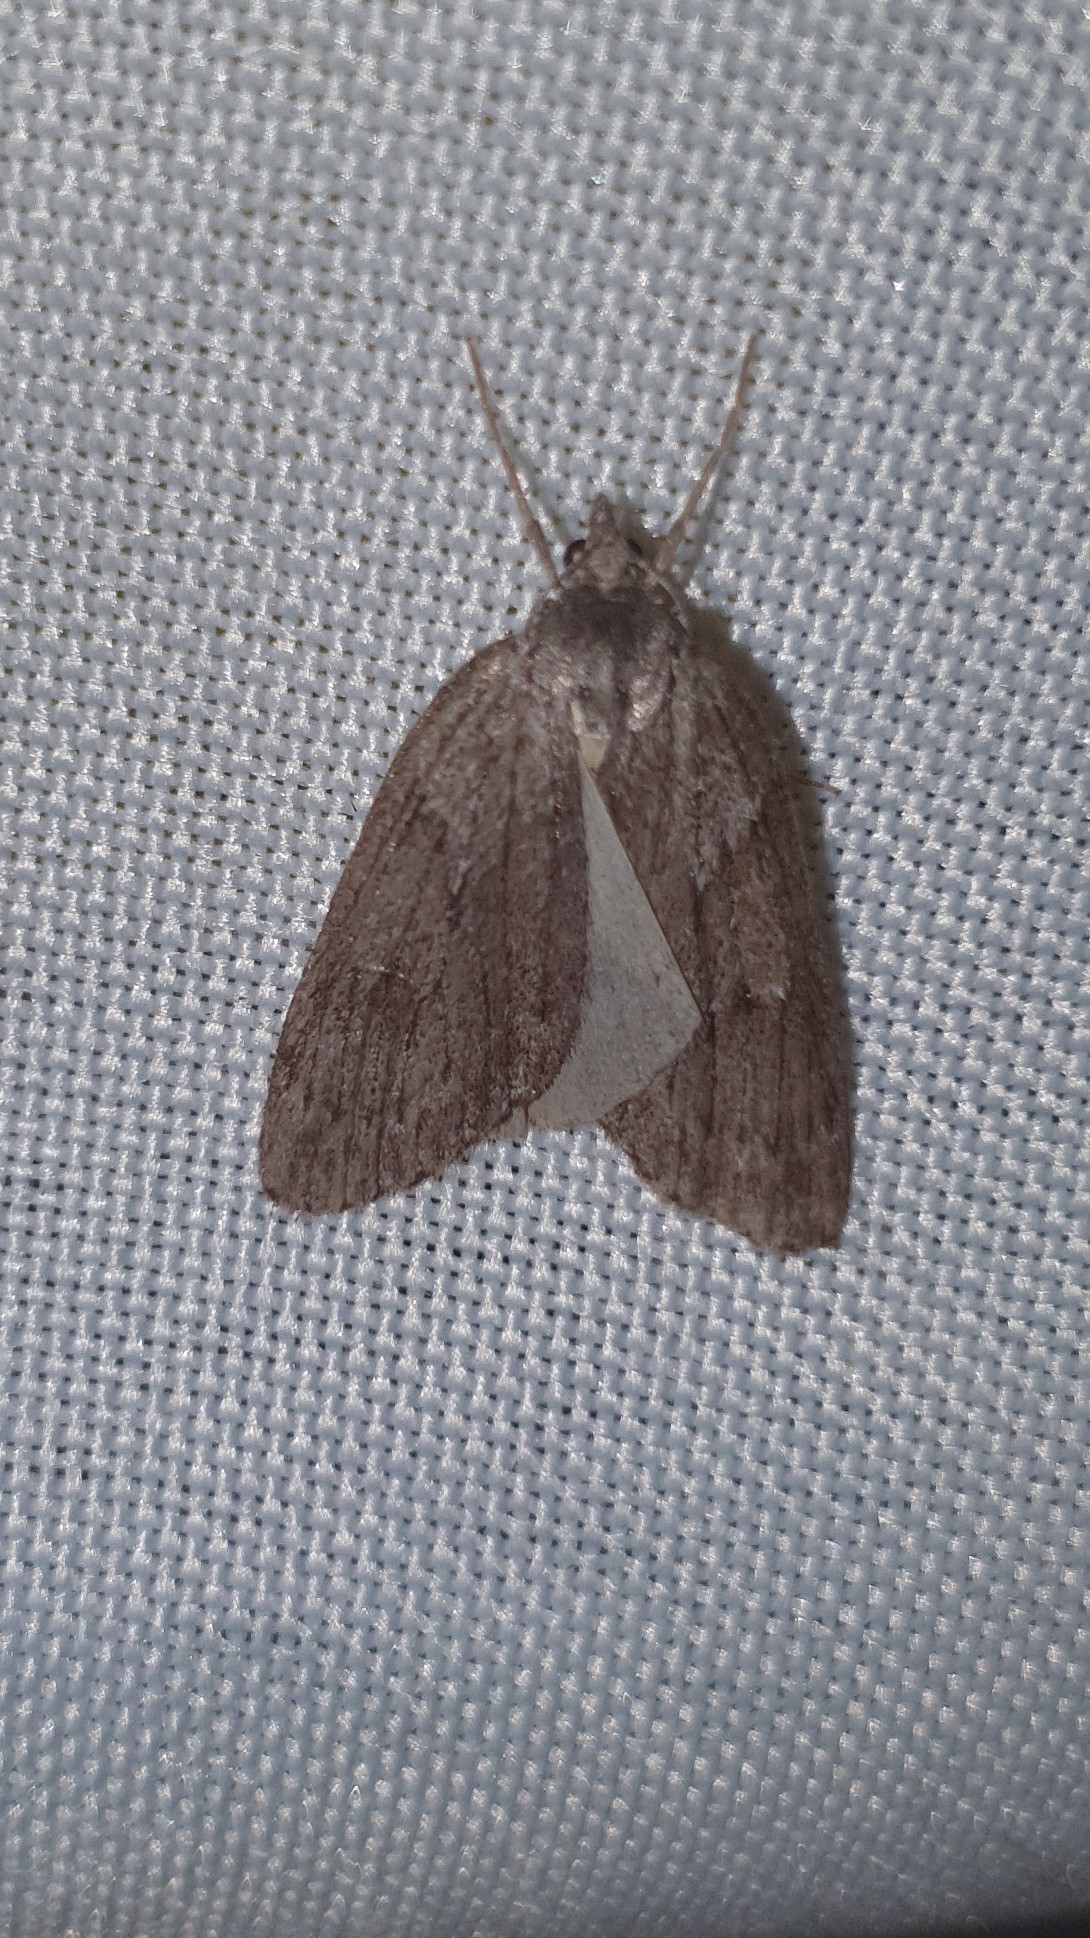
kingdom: Animalia
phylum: Arthropoda
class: Insecta
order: Lepidoptera
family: Geometridae
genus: Pachycnemia
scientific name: Pachycnemia hippocastanaria
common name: Horse chestnut
